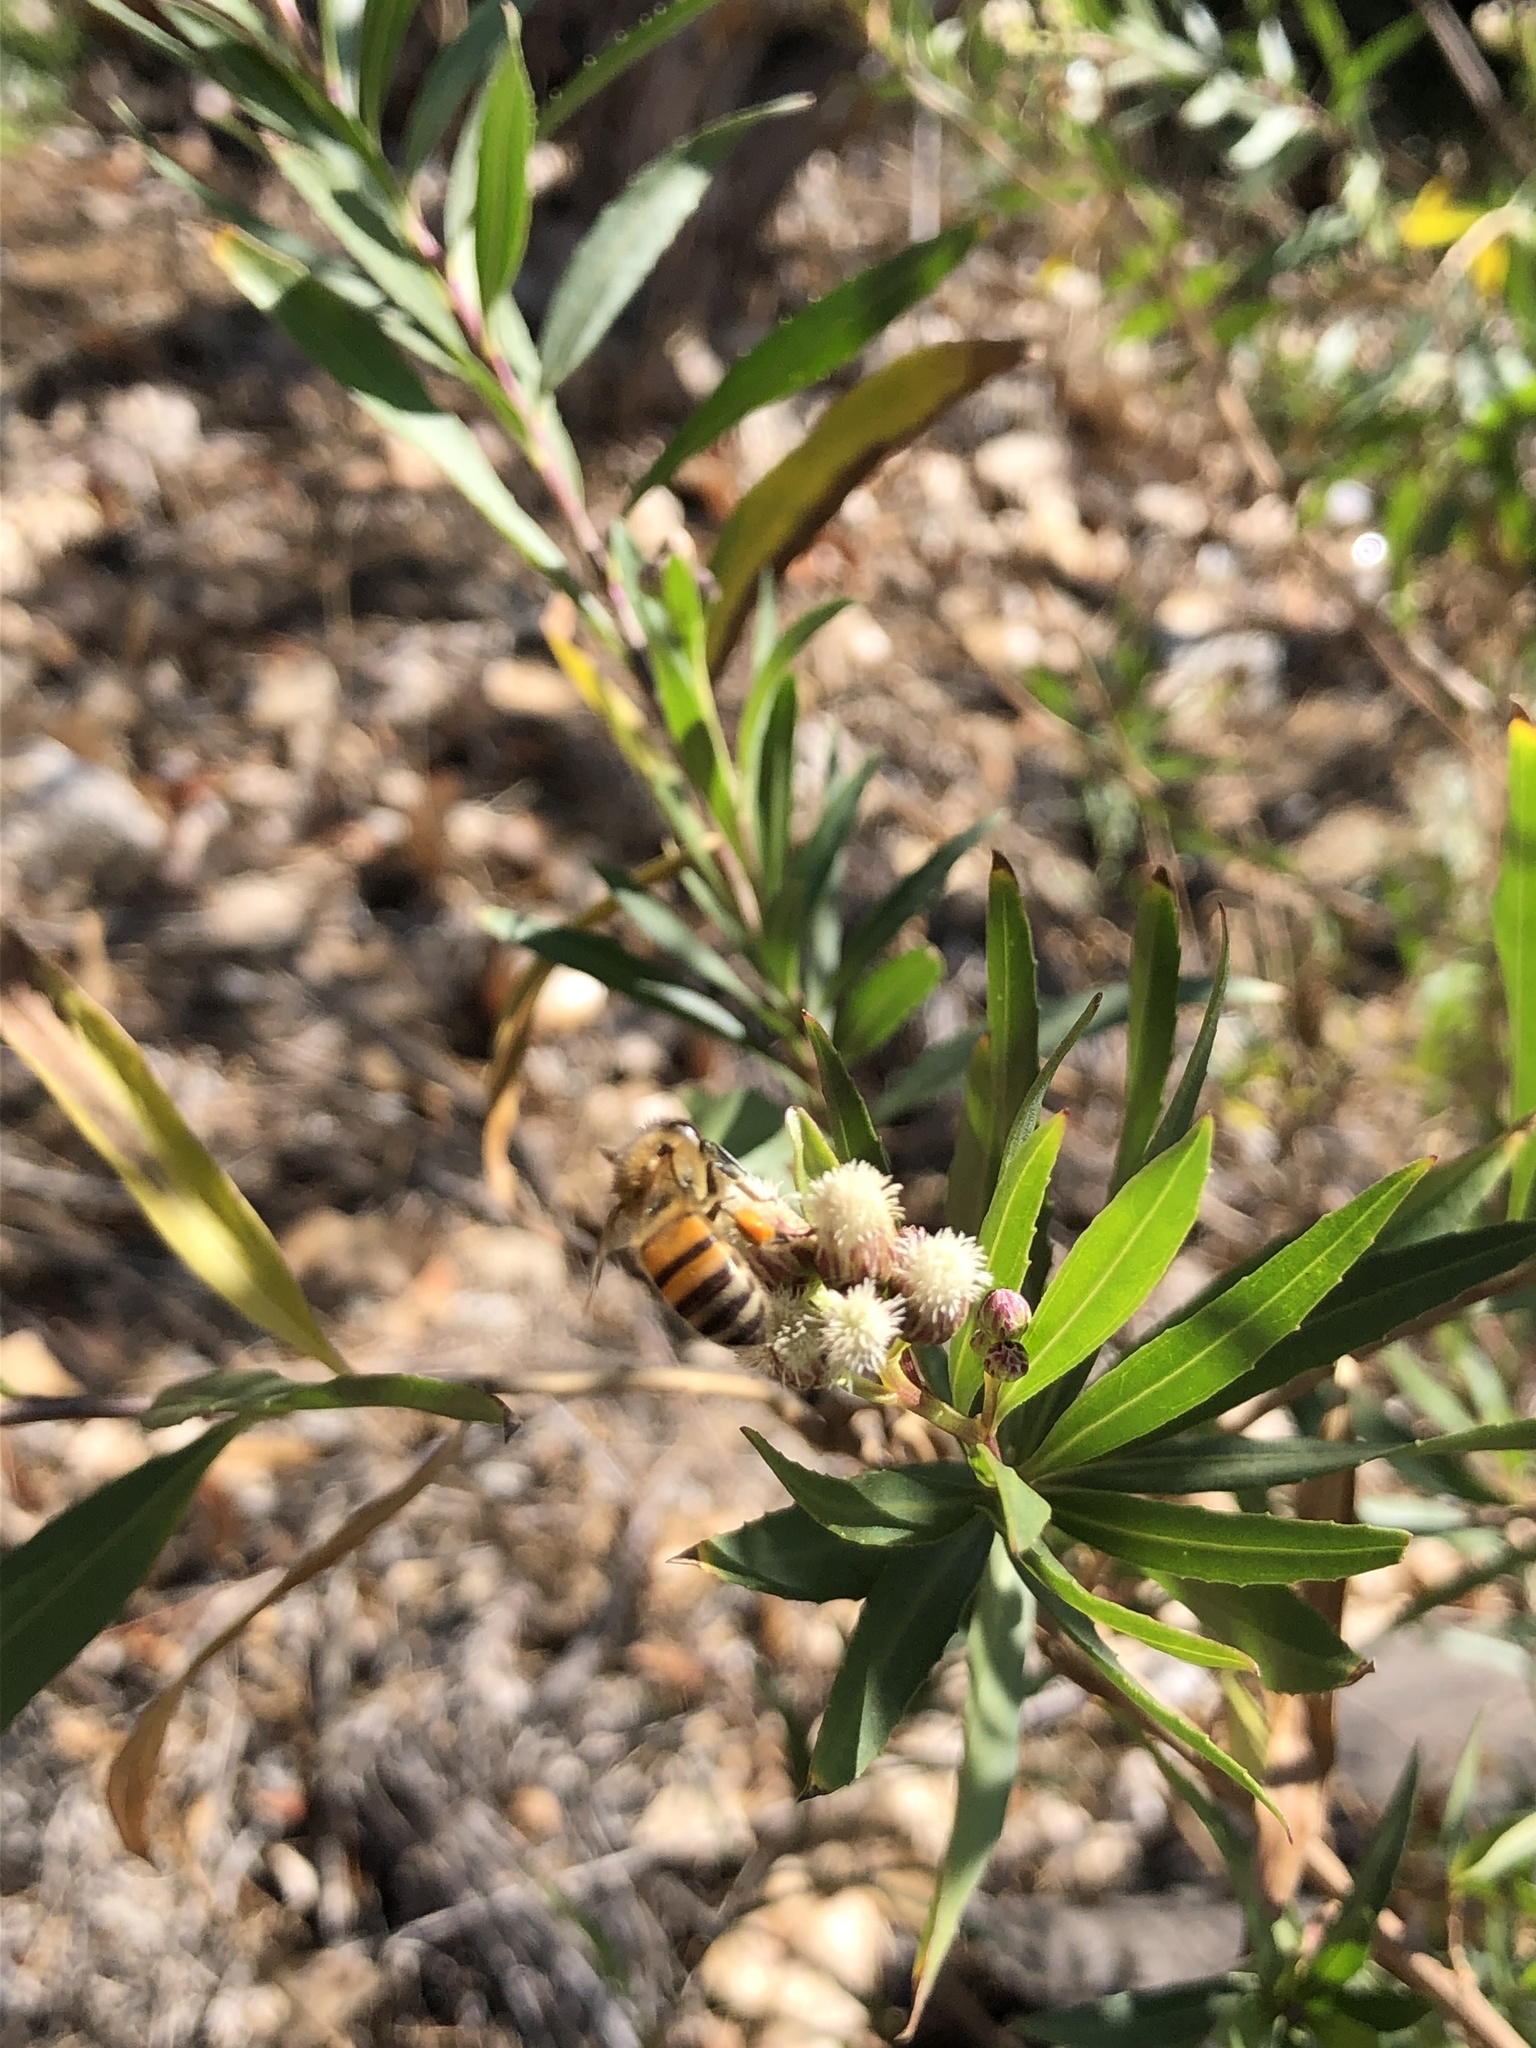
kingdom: Animalia
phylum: Arthropoda
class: Insecta
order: Hymenoptera
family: Apidae
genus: Apis
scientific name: Apis mellifera
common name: Honey bee
